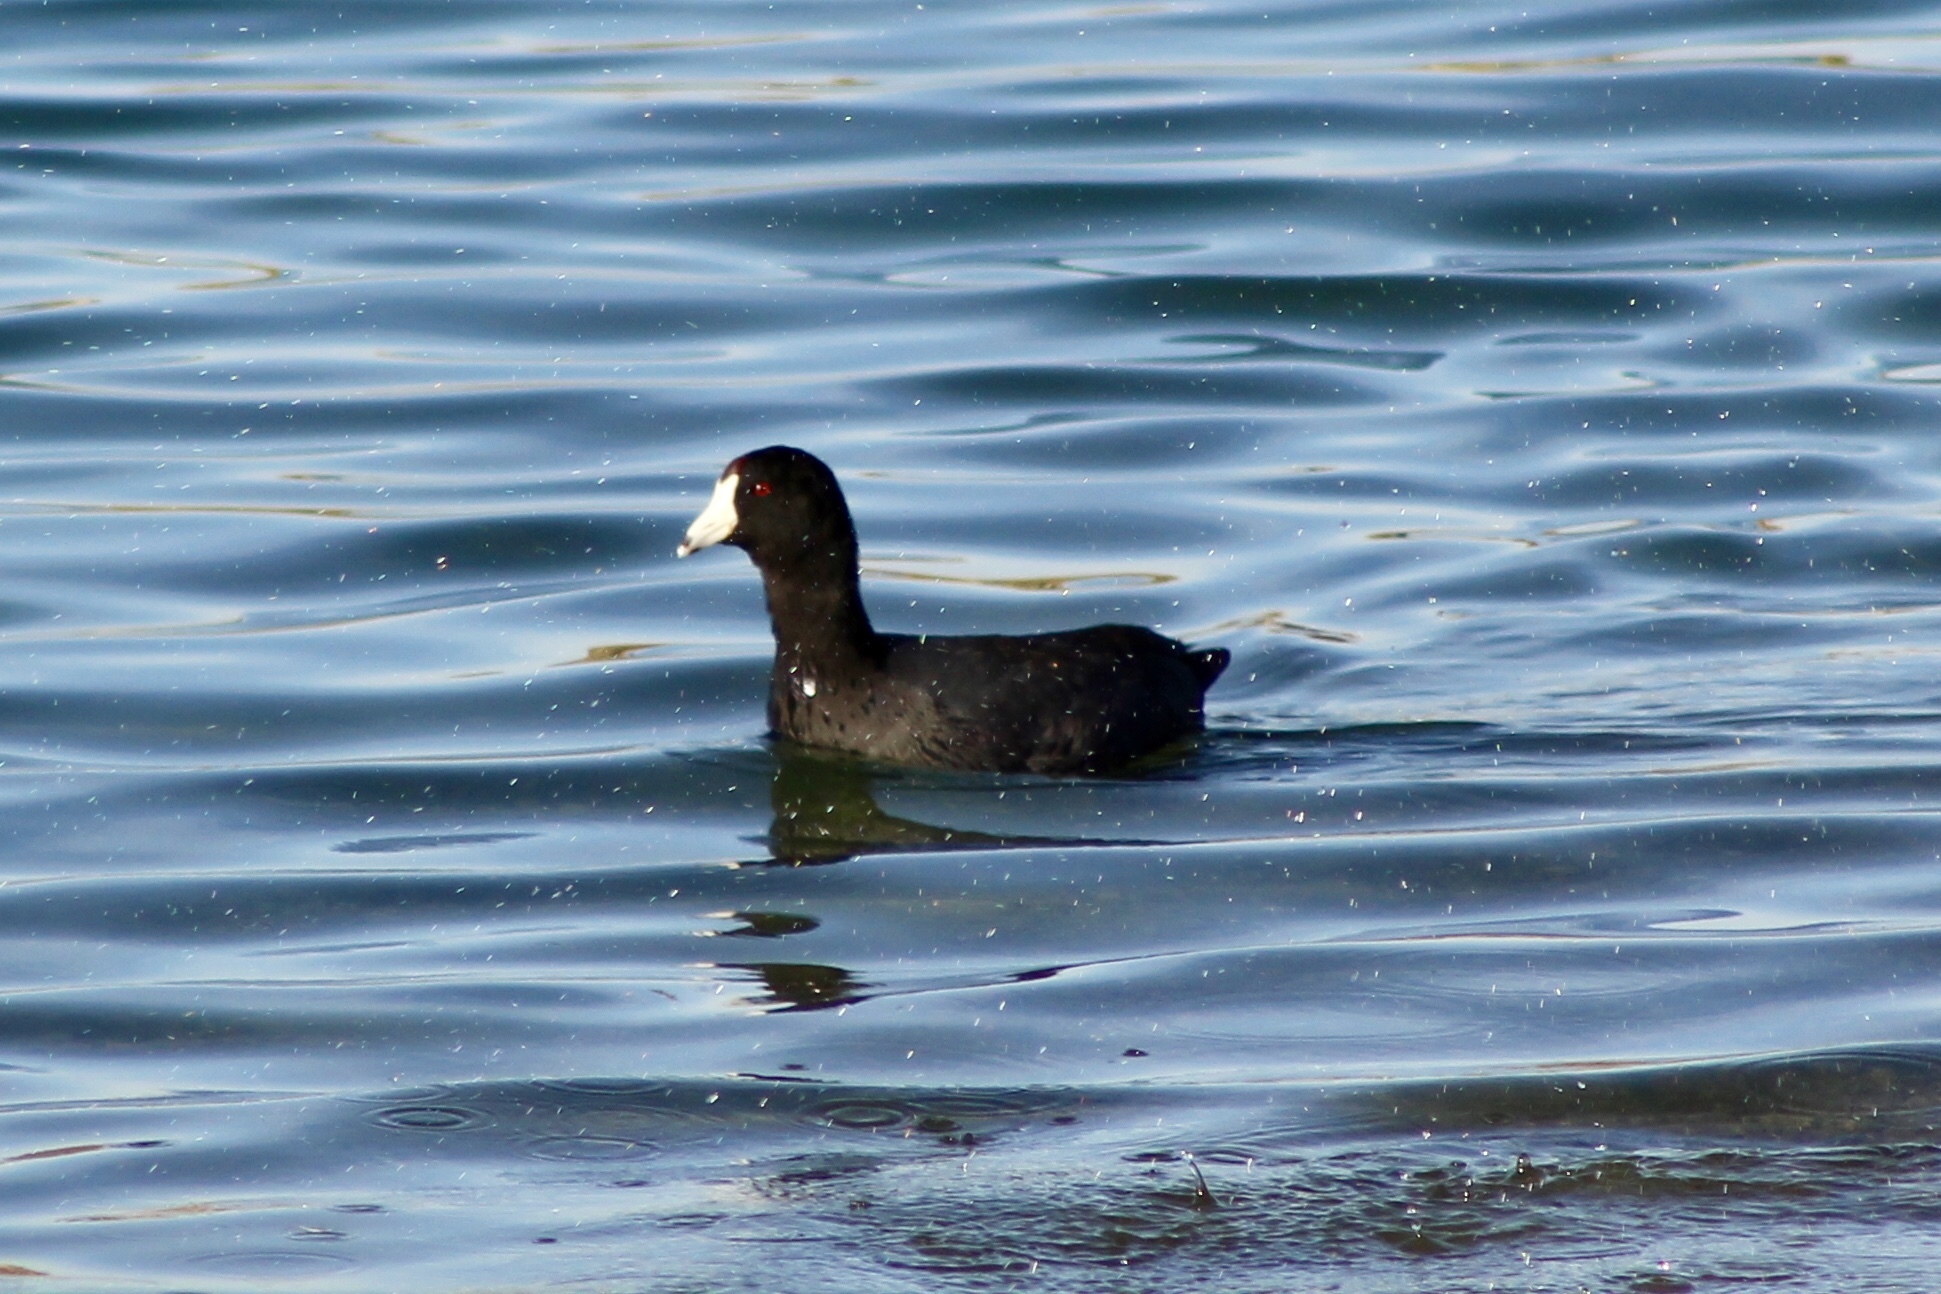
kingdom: Animalia
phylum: Chordata
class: Aves
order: Gruiformes
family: Rallidae
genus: Fulica
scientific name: Fulica americana
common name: American coot
